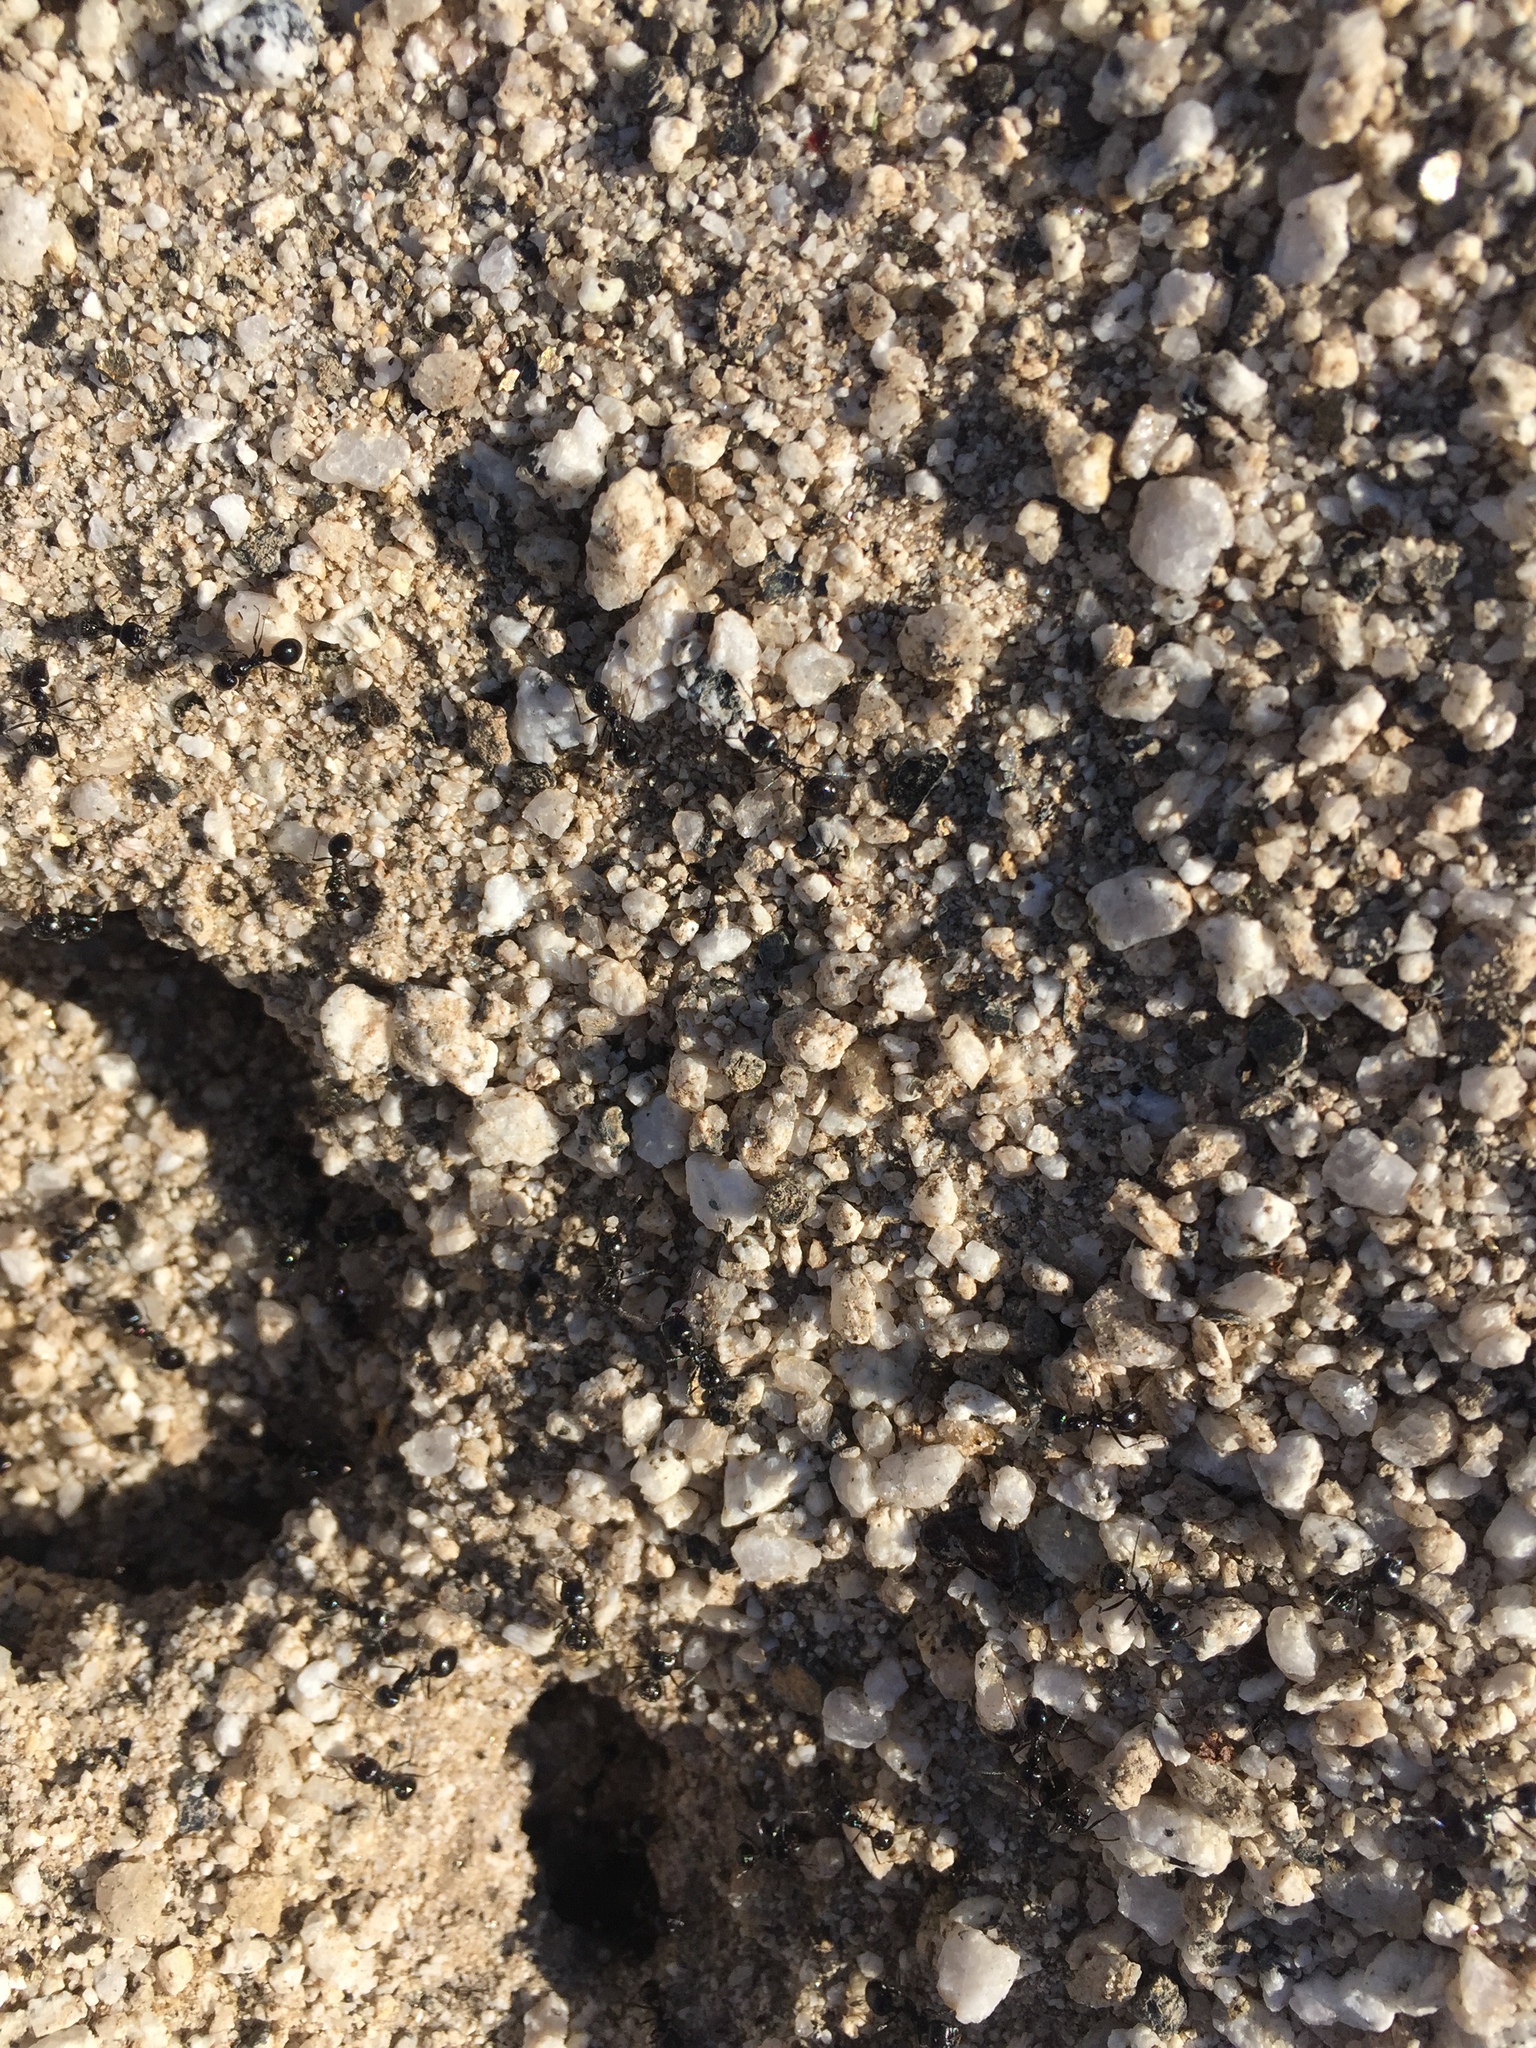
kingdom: Animalia
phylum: Arthropoda
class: Insecta
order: Hymenoptera
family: Formicidae
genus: Messor
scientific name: Messor pergandei
